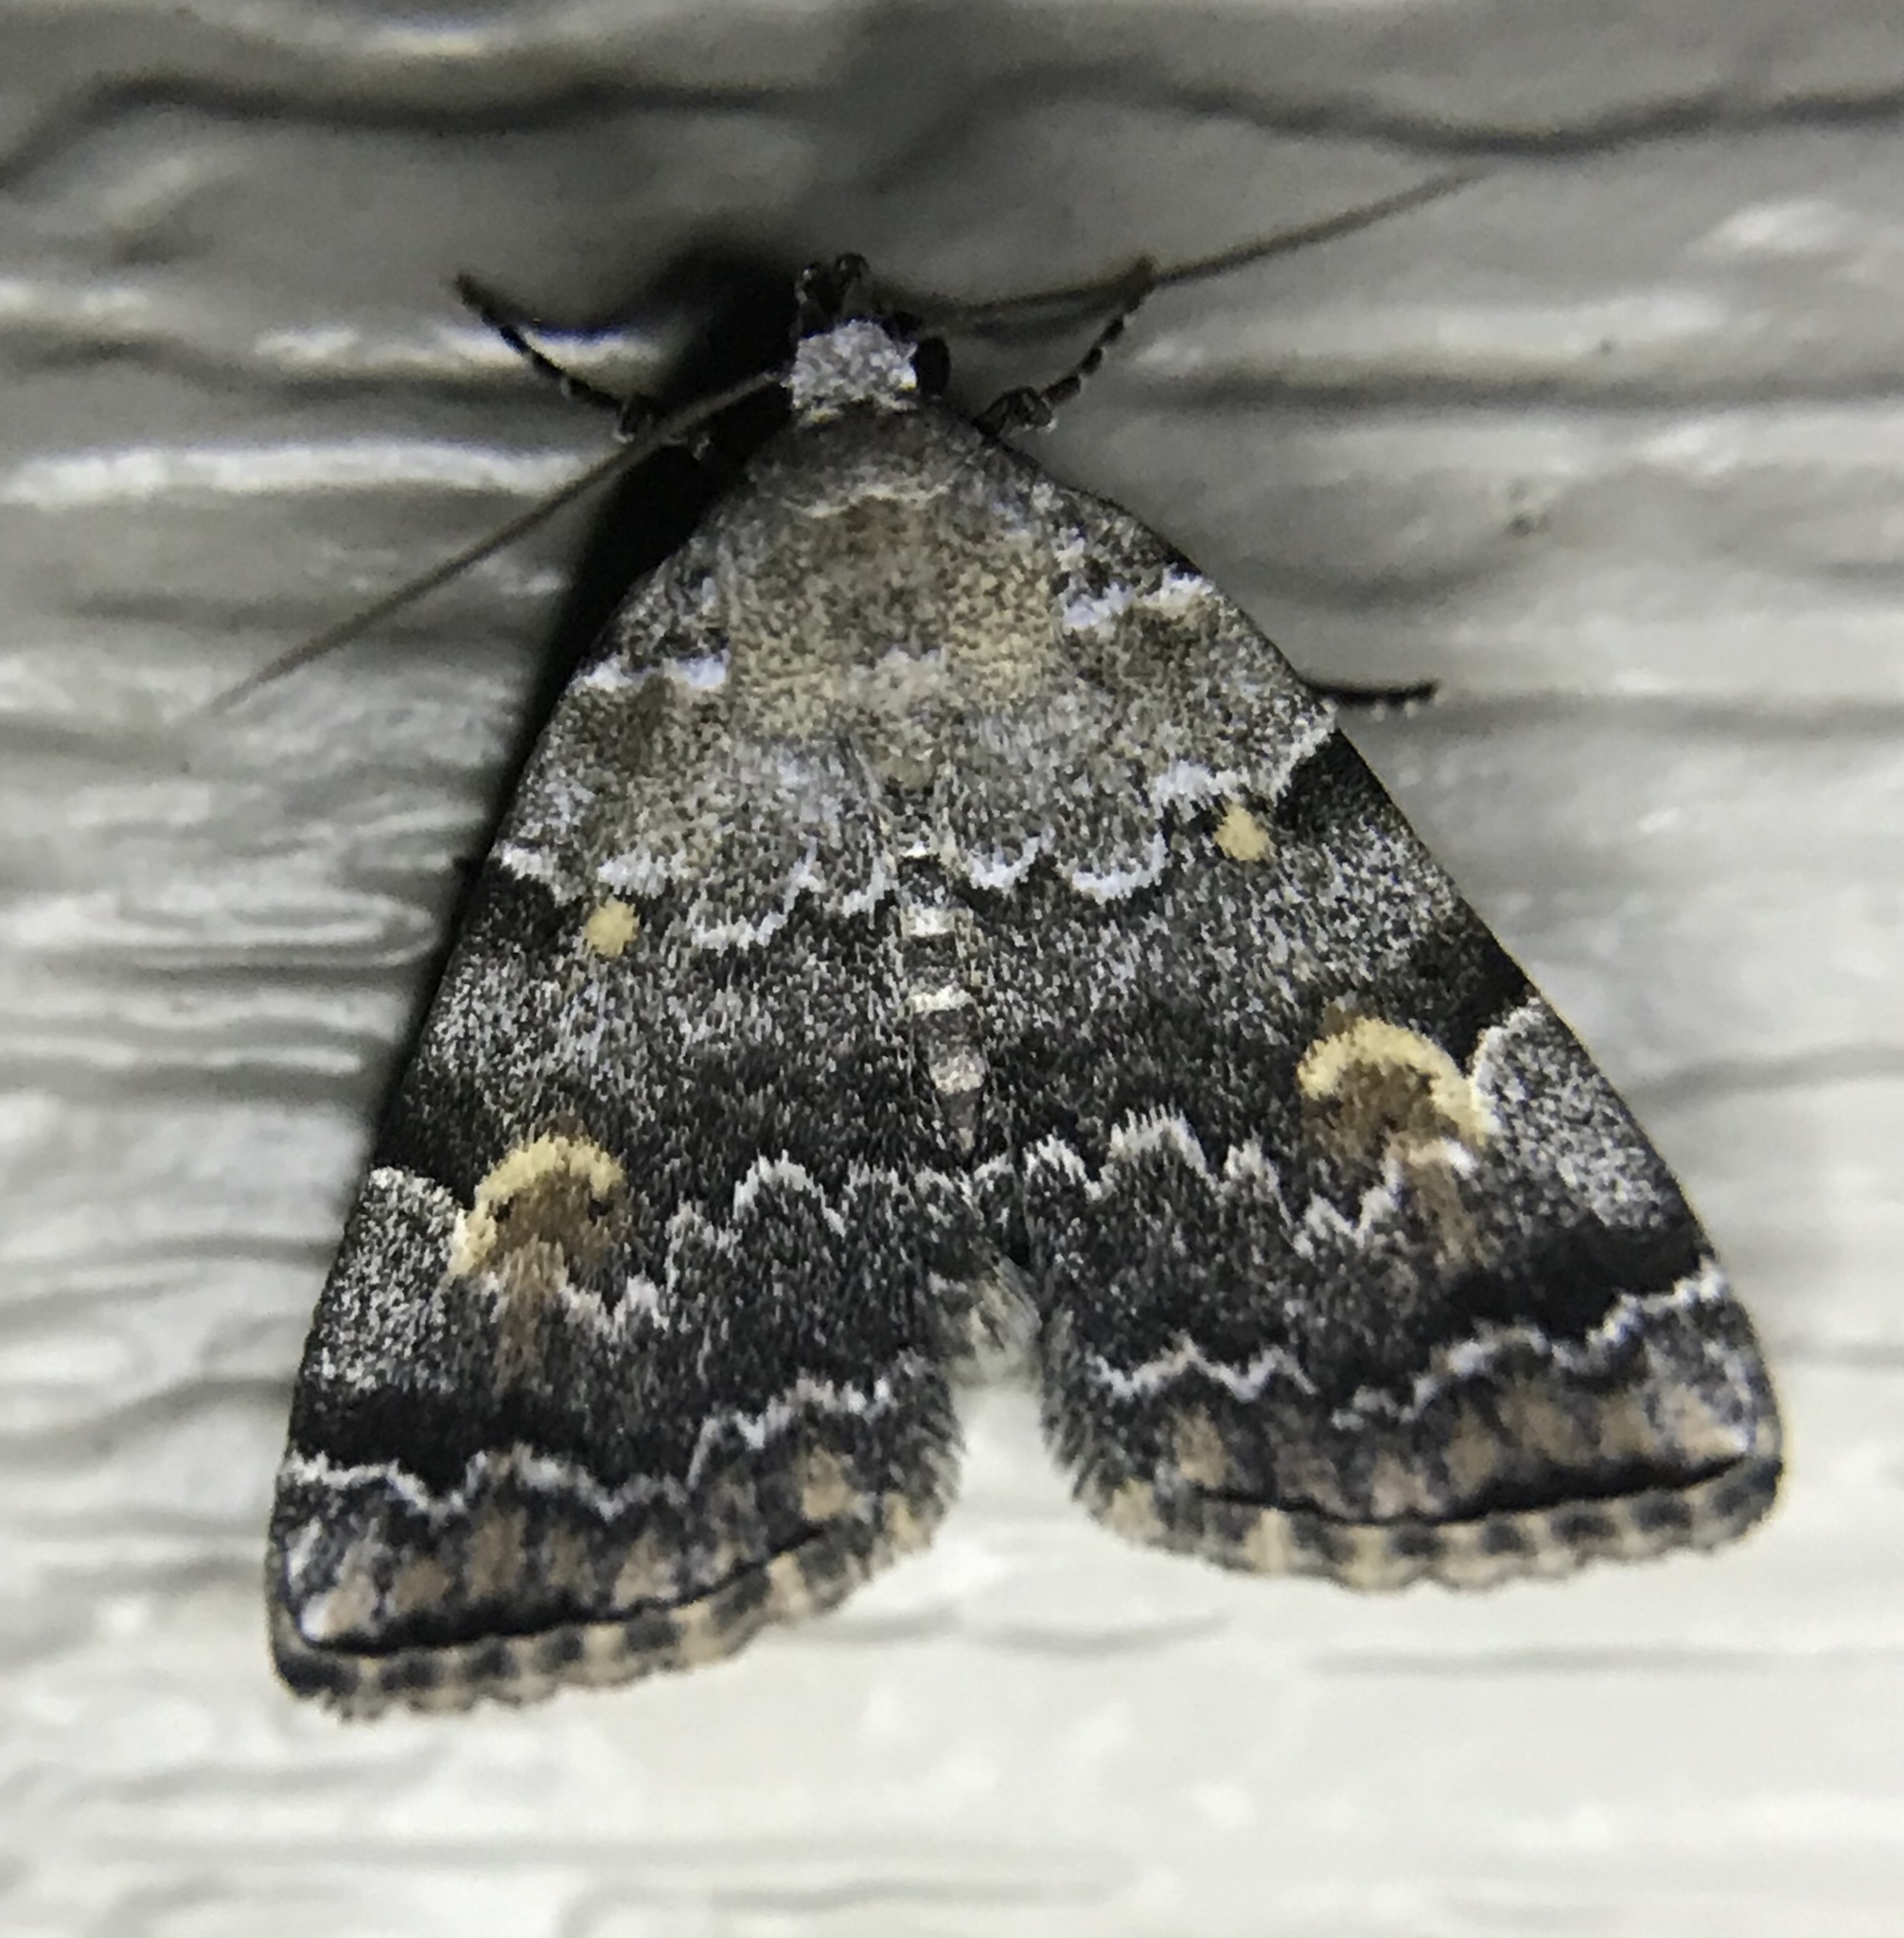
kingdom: Animalia
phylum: Arthropoda
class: Insecta
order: Lepidoptera
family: Erebidae
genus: Idia
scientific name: Idia americalis
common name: American idia moth
